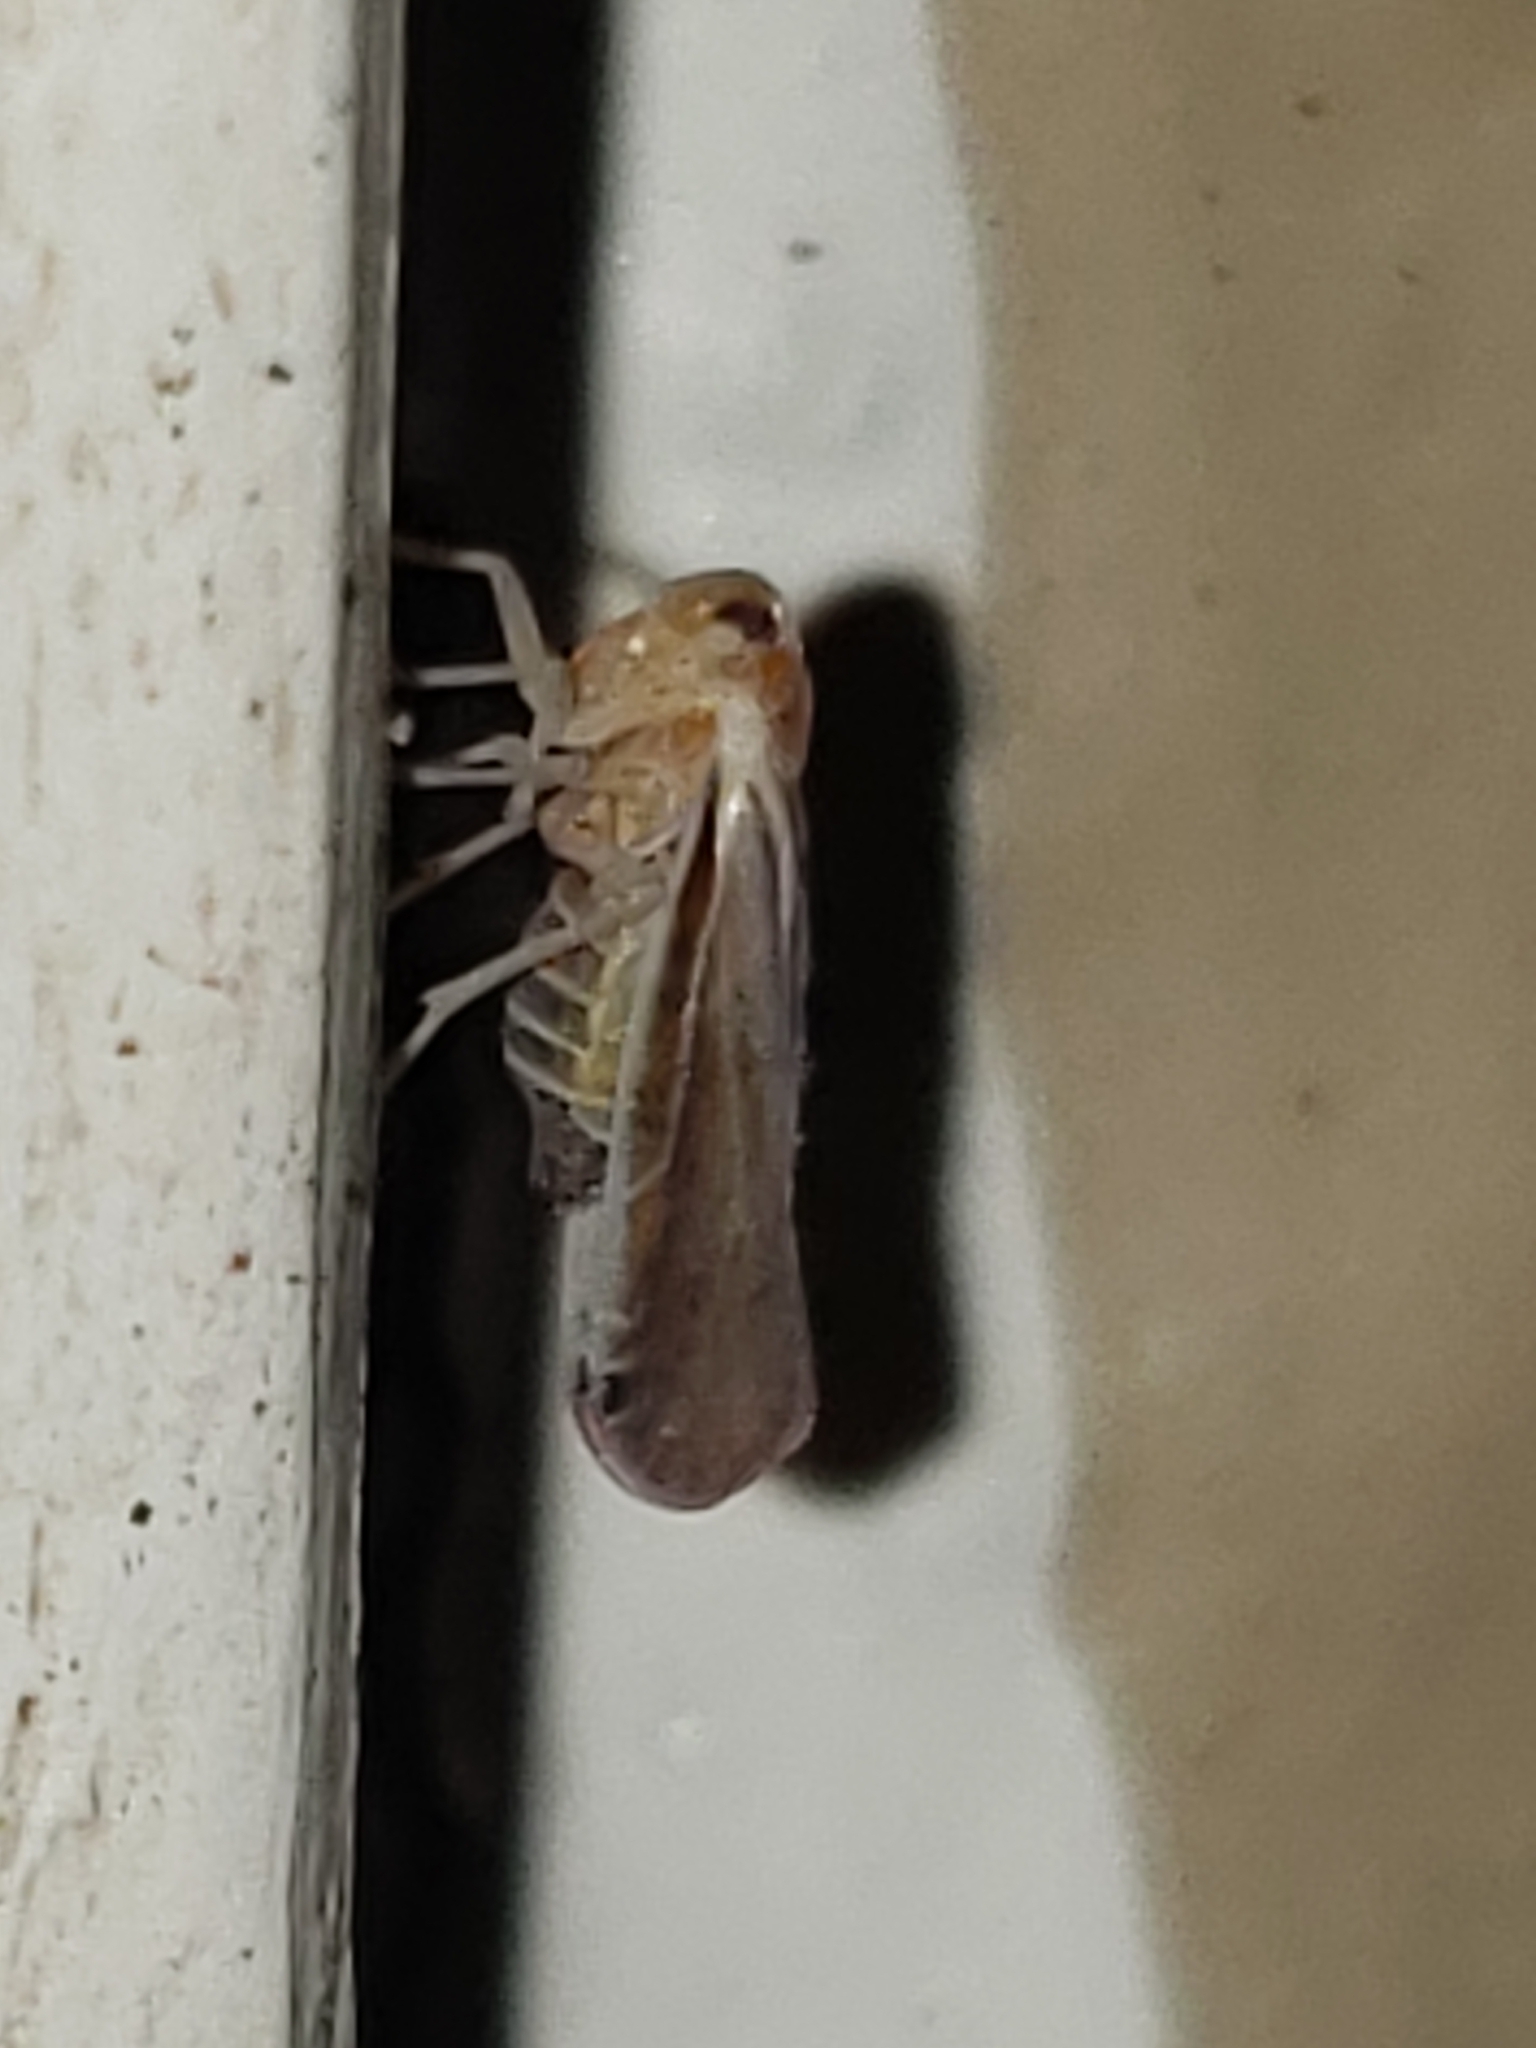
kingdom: Animalia
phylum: Arthropoda
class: Insecta
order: Hemiptera
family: Derbidae
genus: Omolicna
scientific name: Omolicna uhleri
